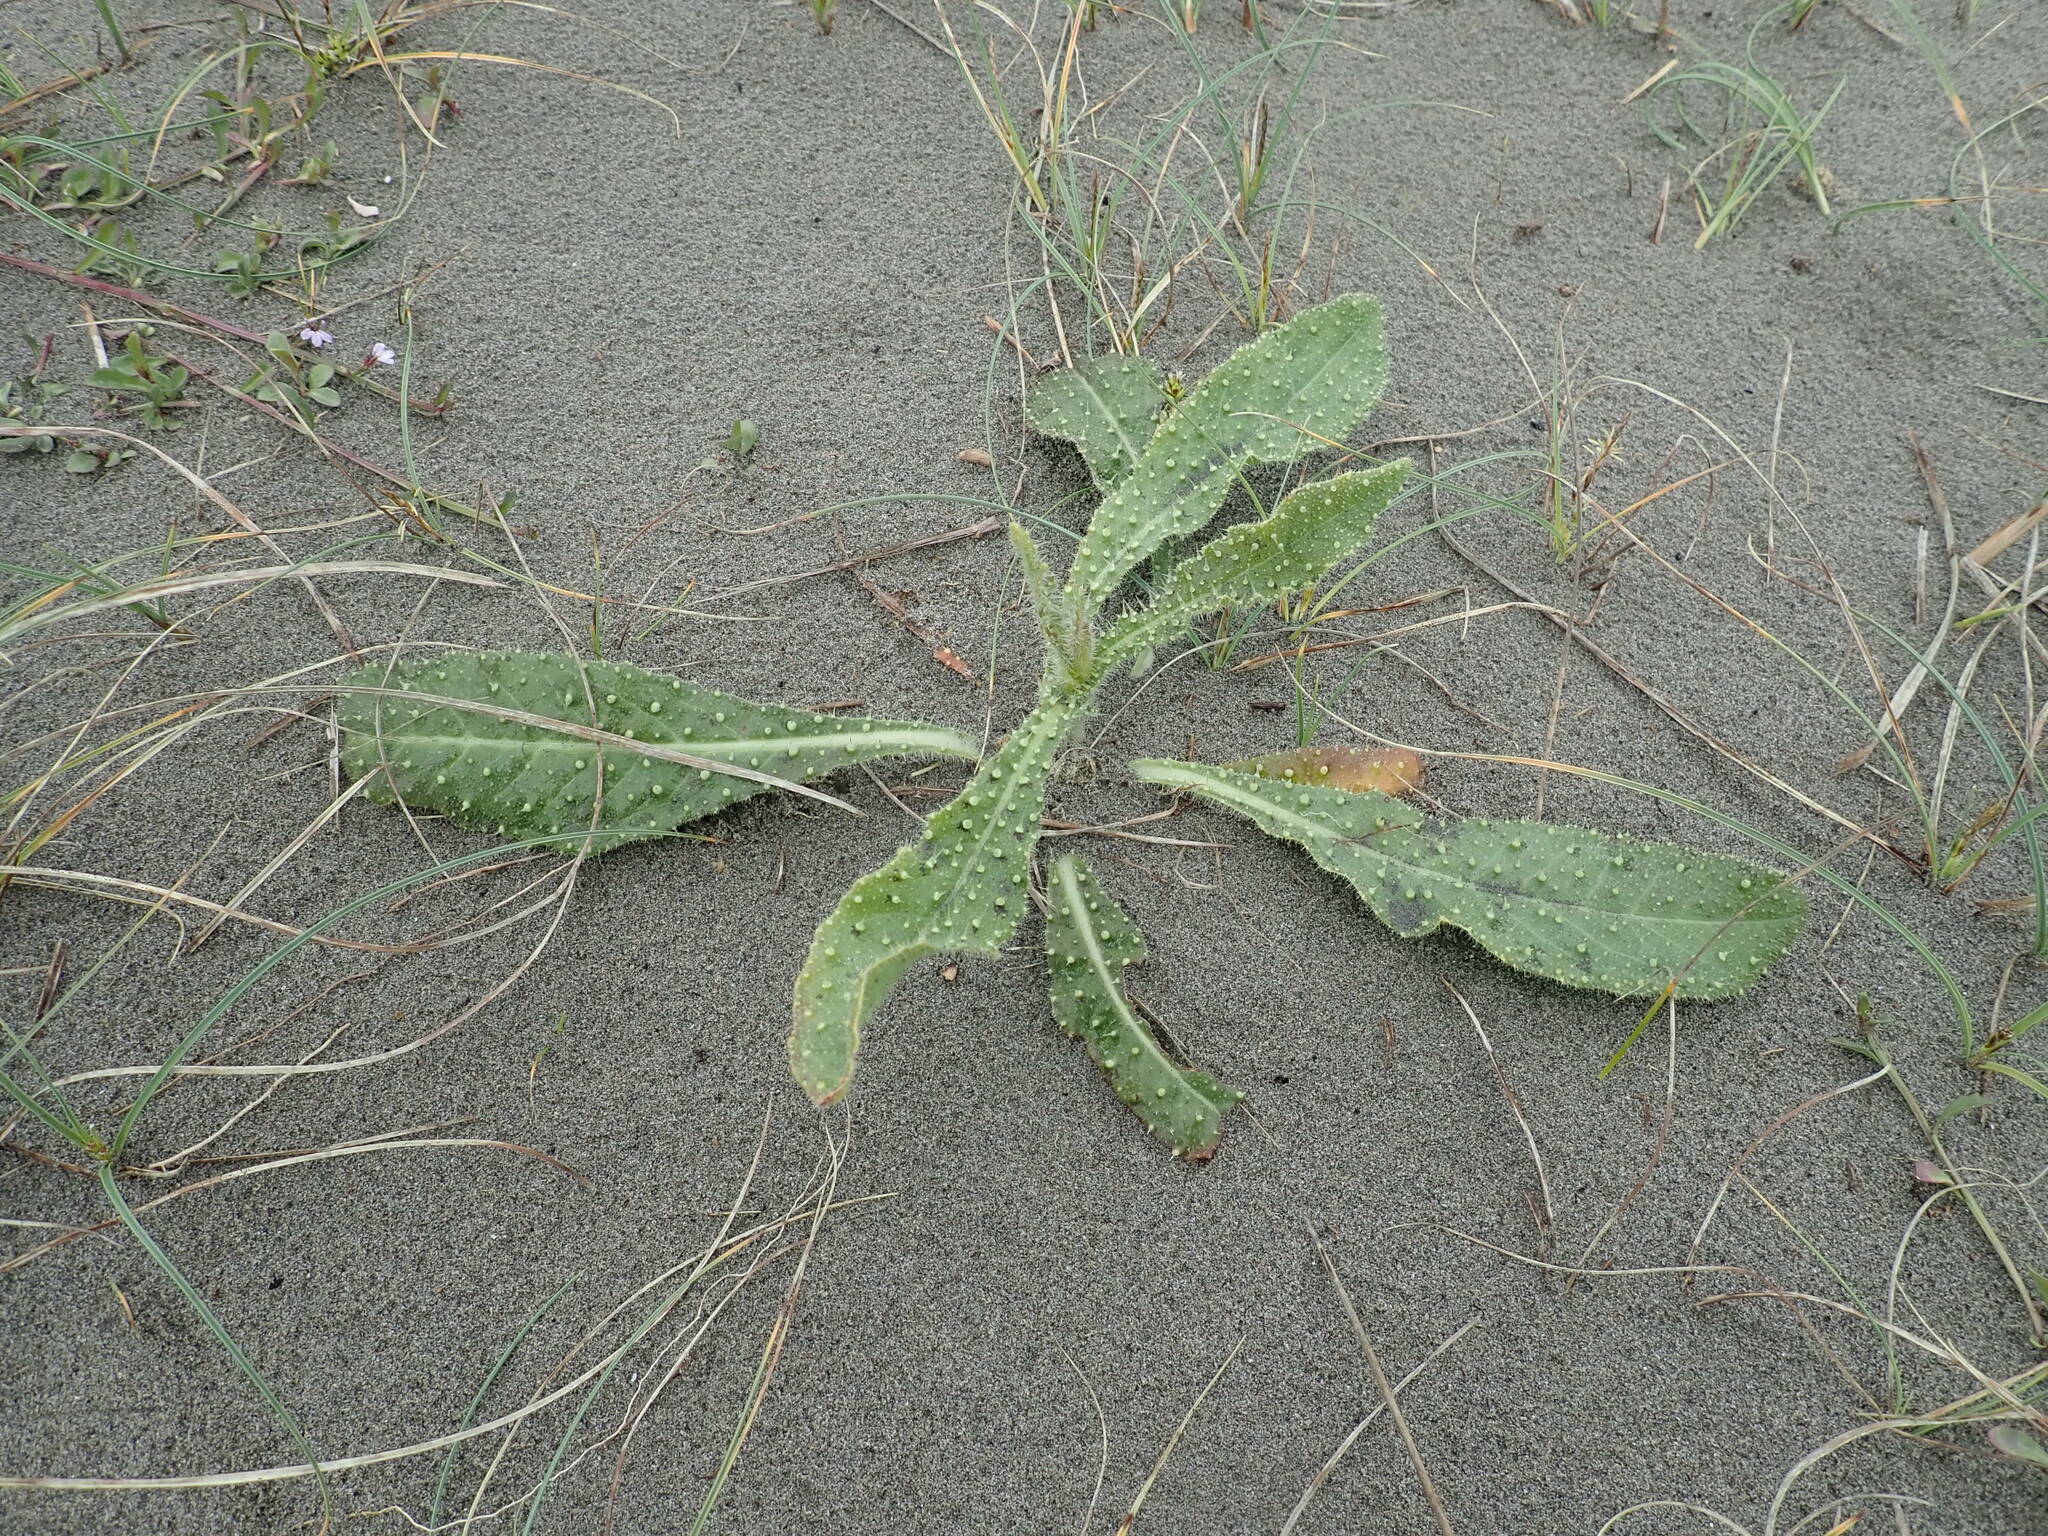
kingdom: Plantae
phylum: Tracheophyta
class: Magnoliopsida
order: Asterales
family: Asteraceae
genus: Helminthotheca
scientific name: Helminthotheca echioides
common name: Ox-tongue
